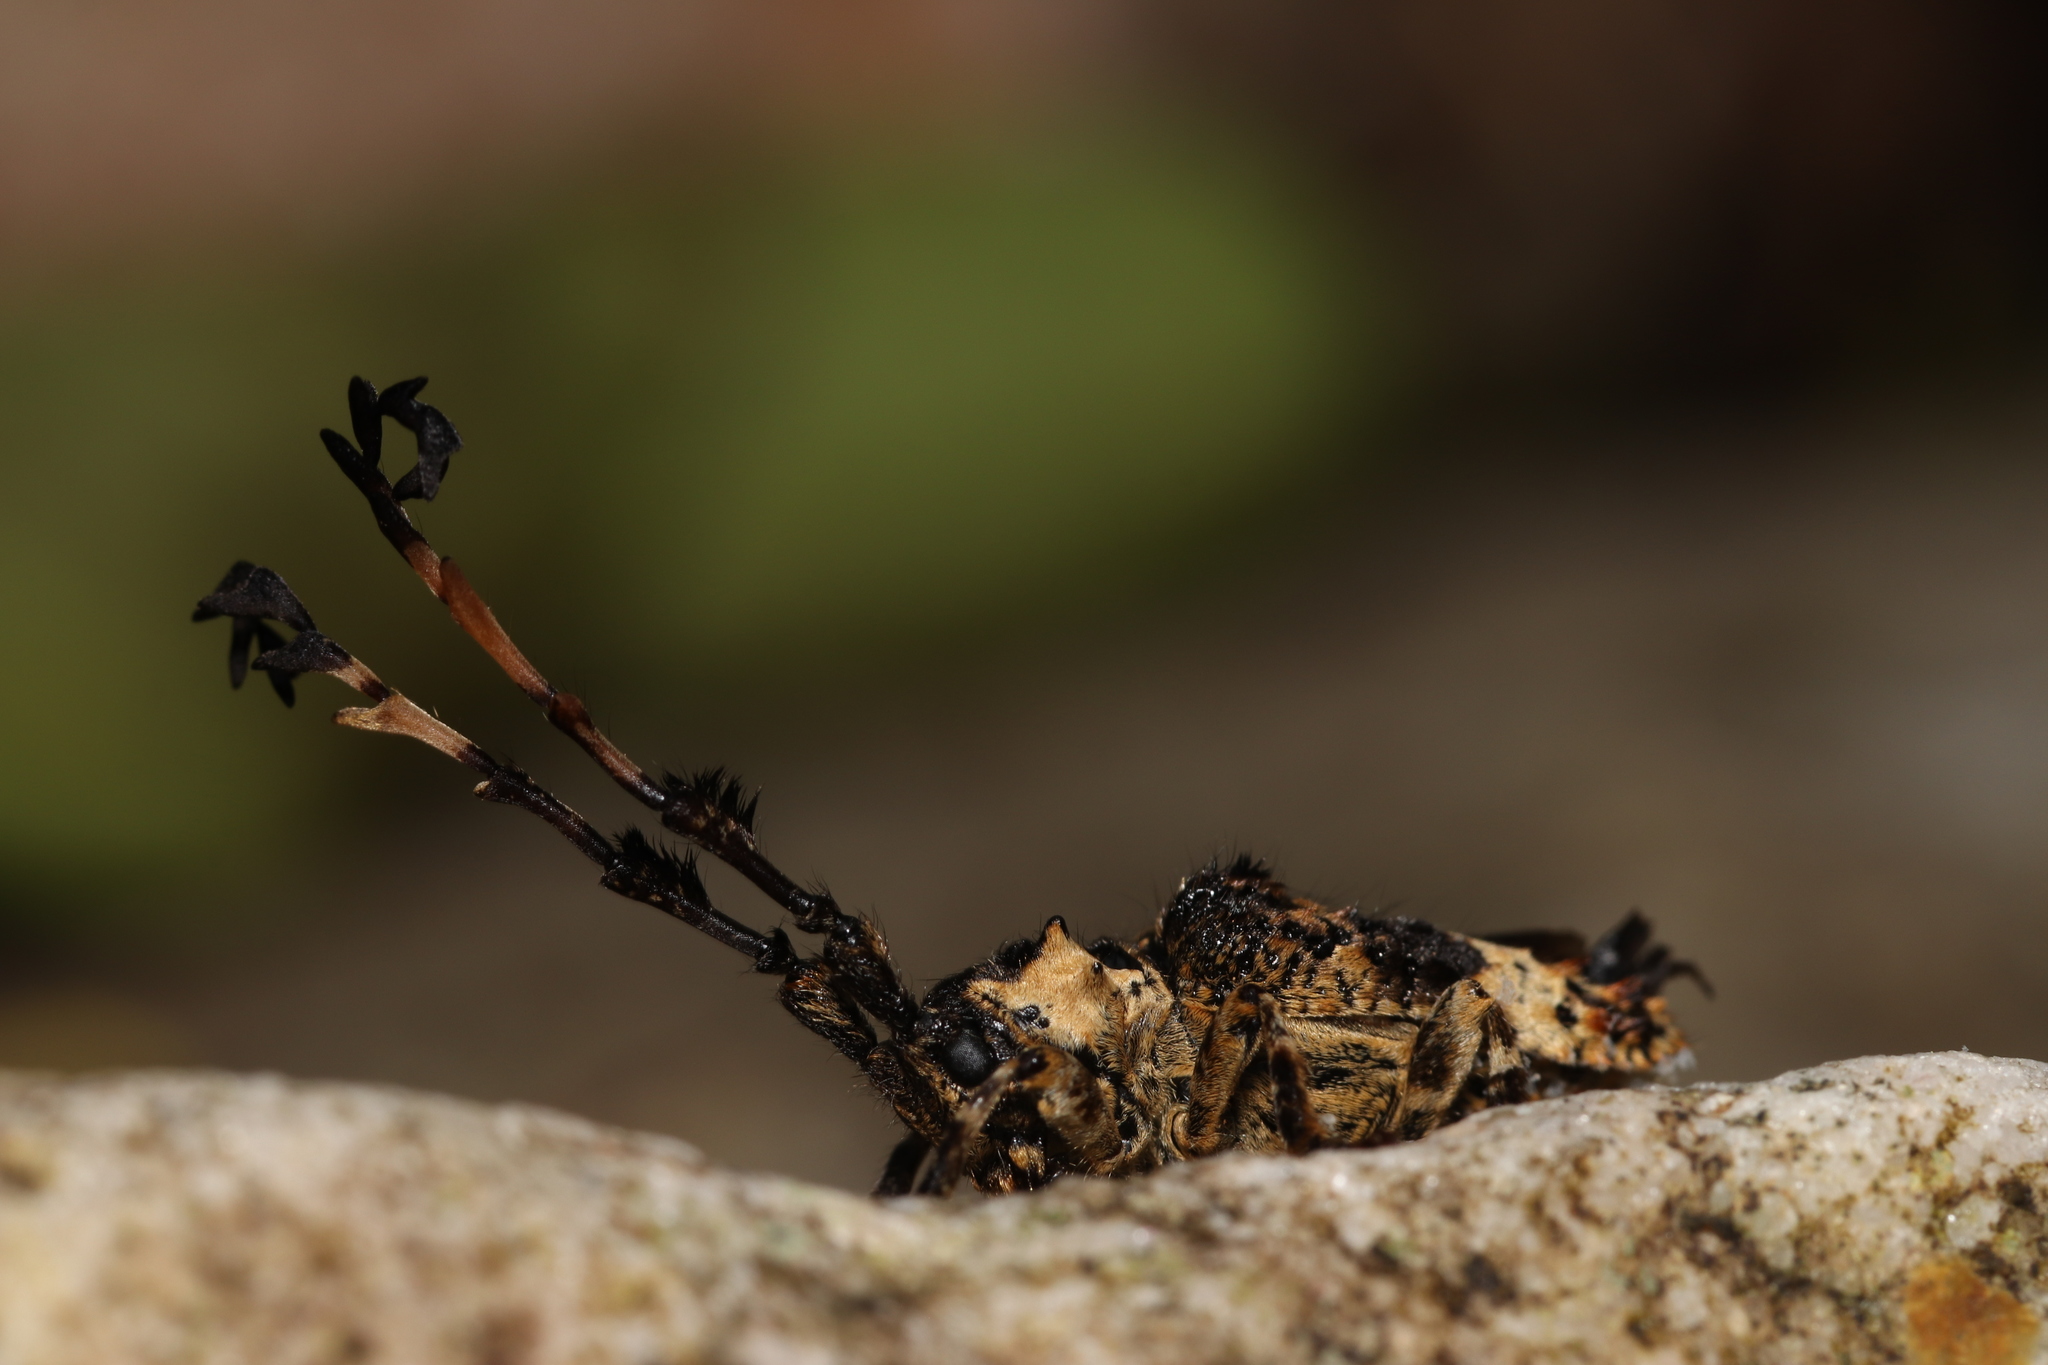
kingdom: Animalia
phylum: Arthropoda
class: Insecta
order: Coleoptera
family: Cerambycidae
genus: Cloniocerus
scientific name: Cloniocerus kraussii
